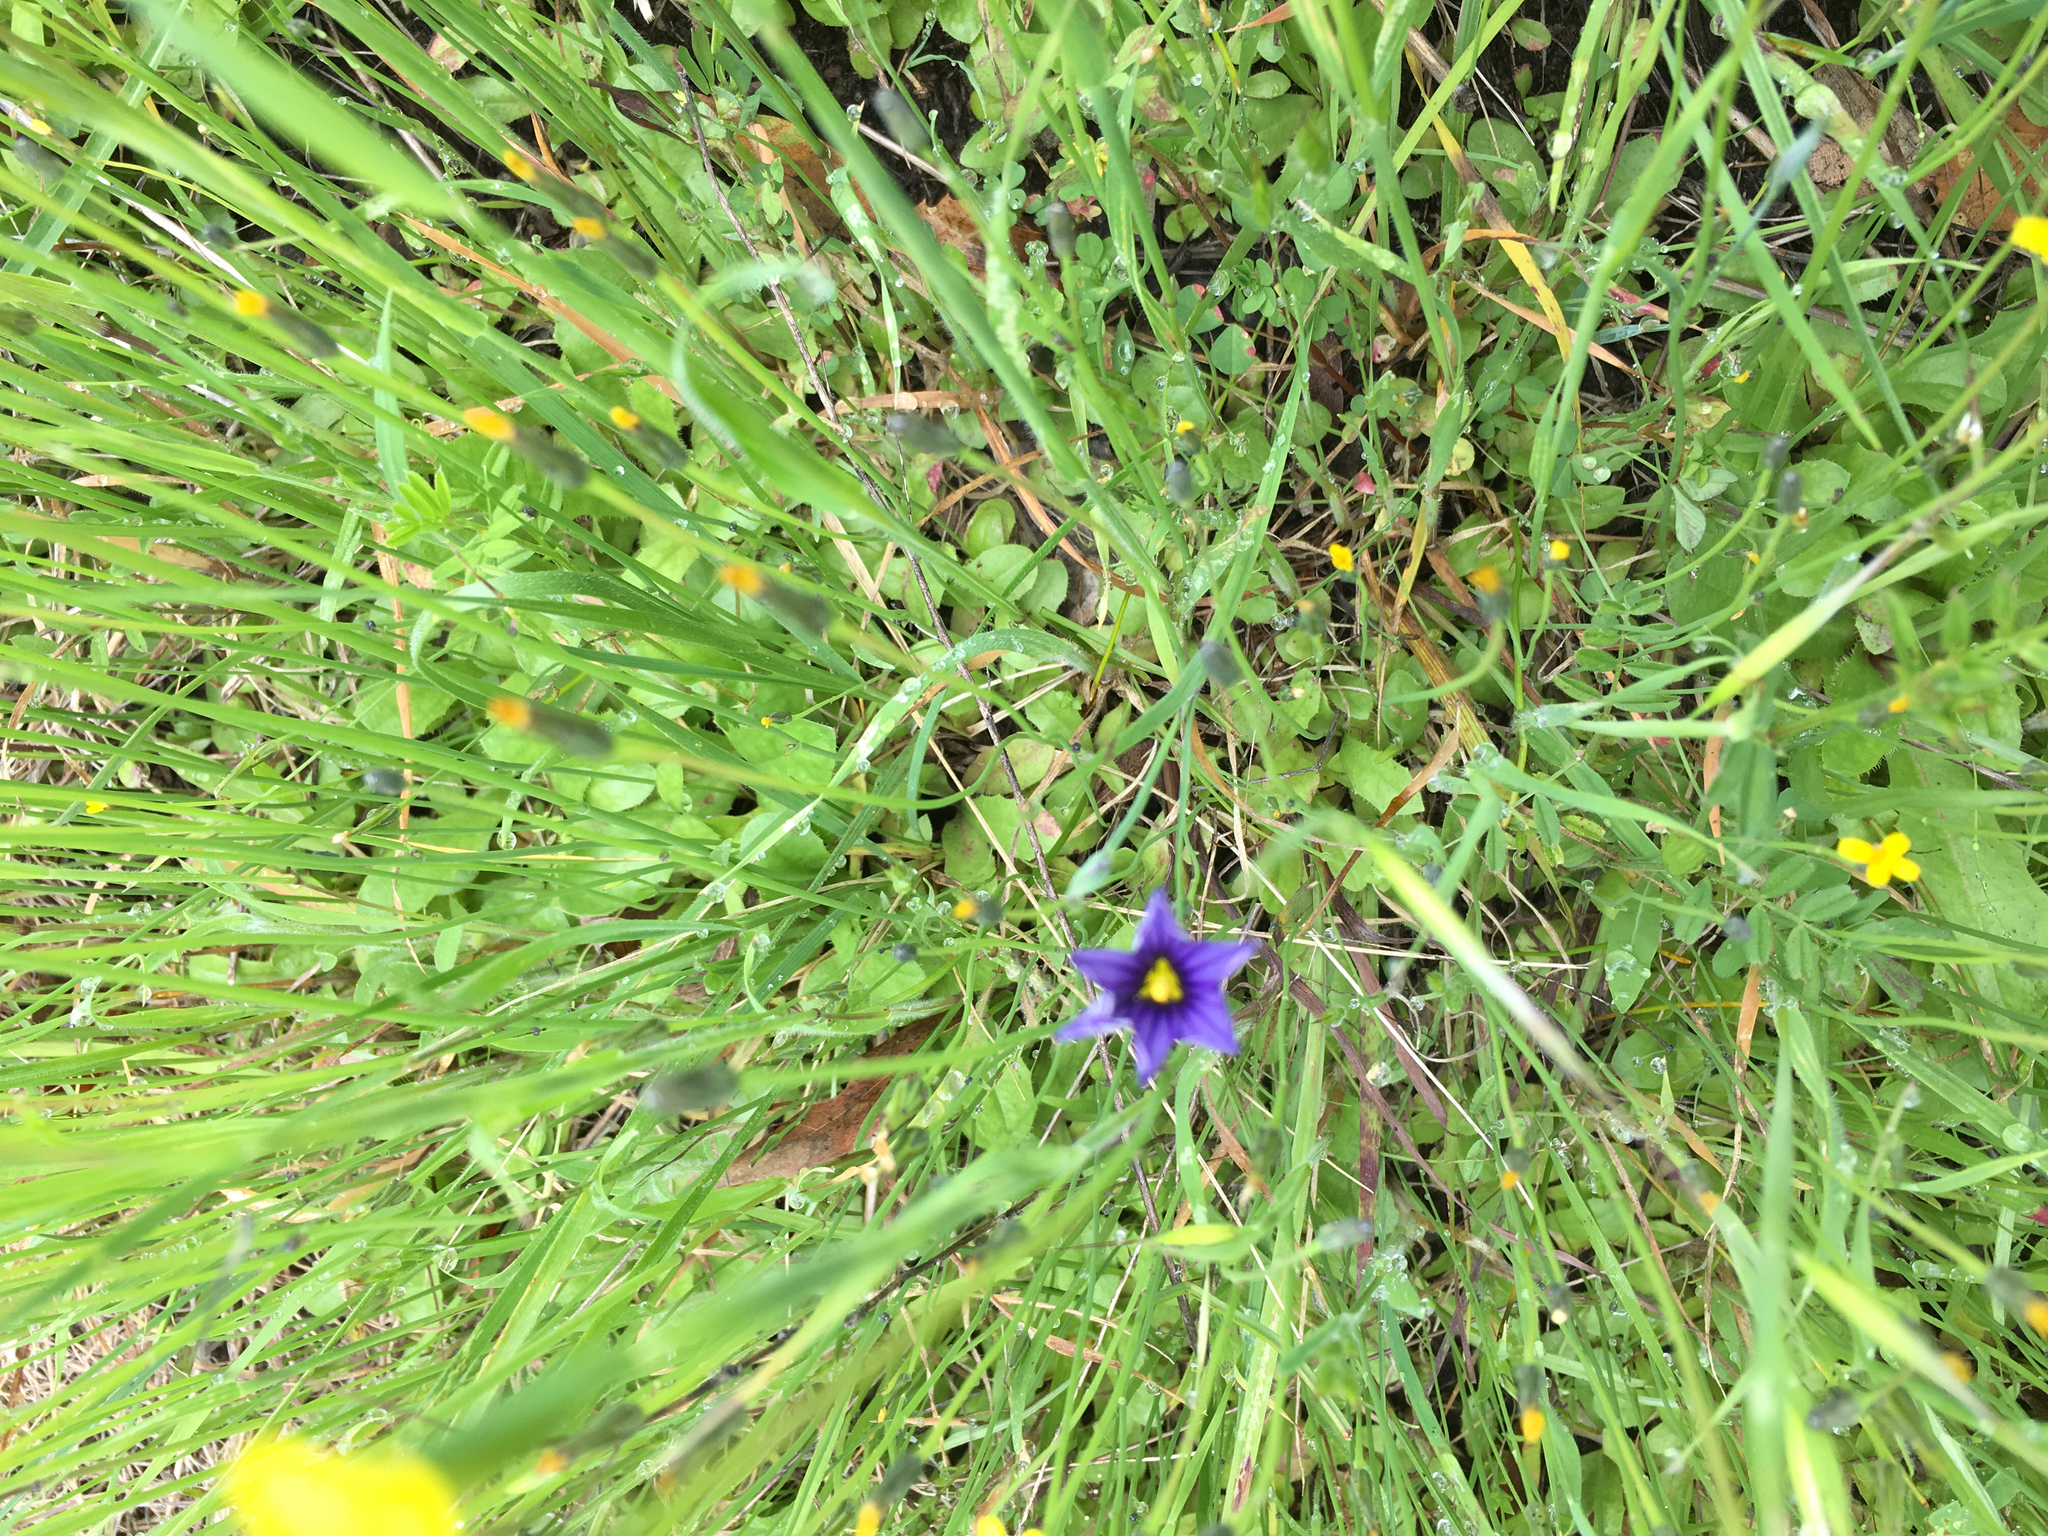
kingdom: Plantae
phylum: Tracheophyta
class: Liliopsida
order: Asparagales
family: Iridaceae
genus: Sisyrinchium
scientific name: Sisyrinchium bellum
